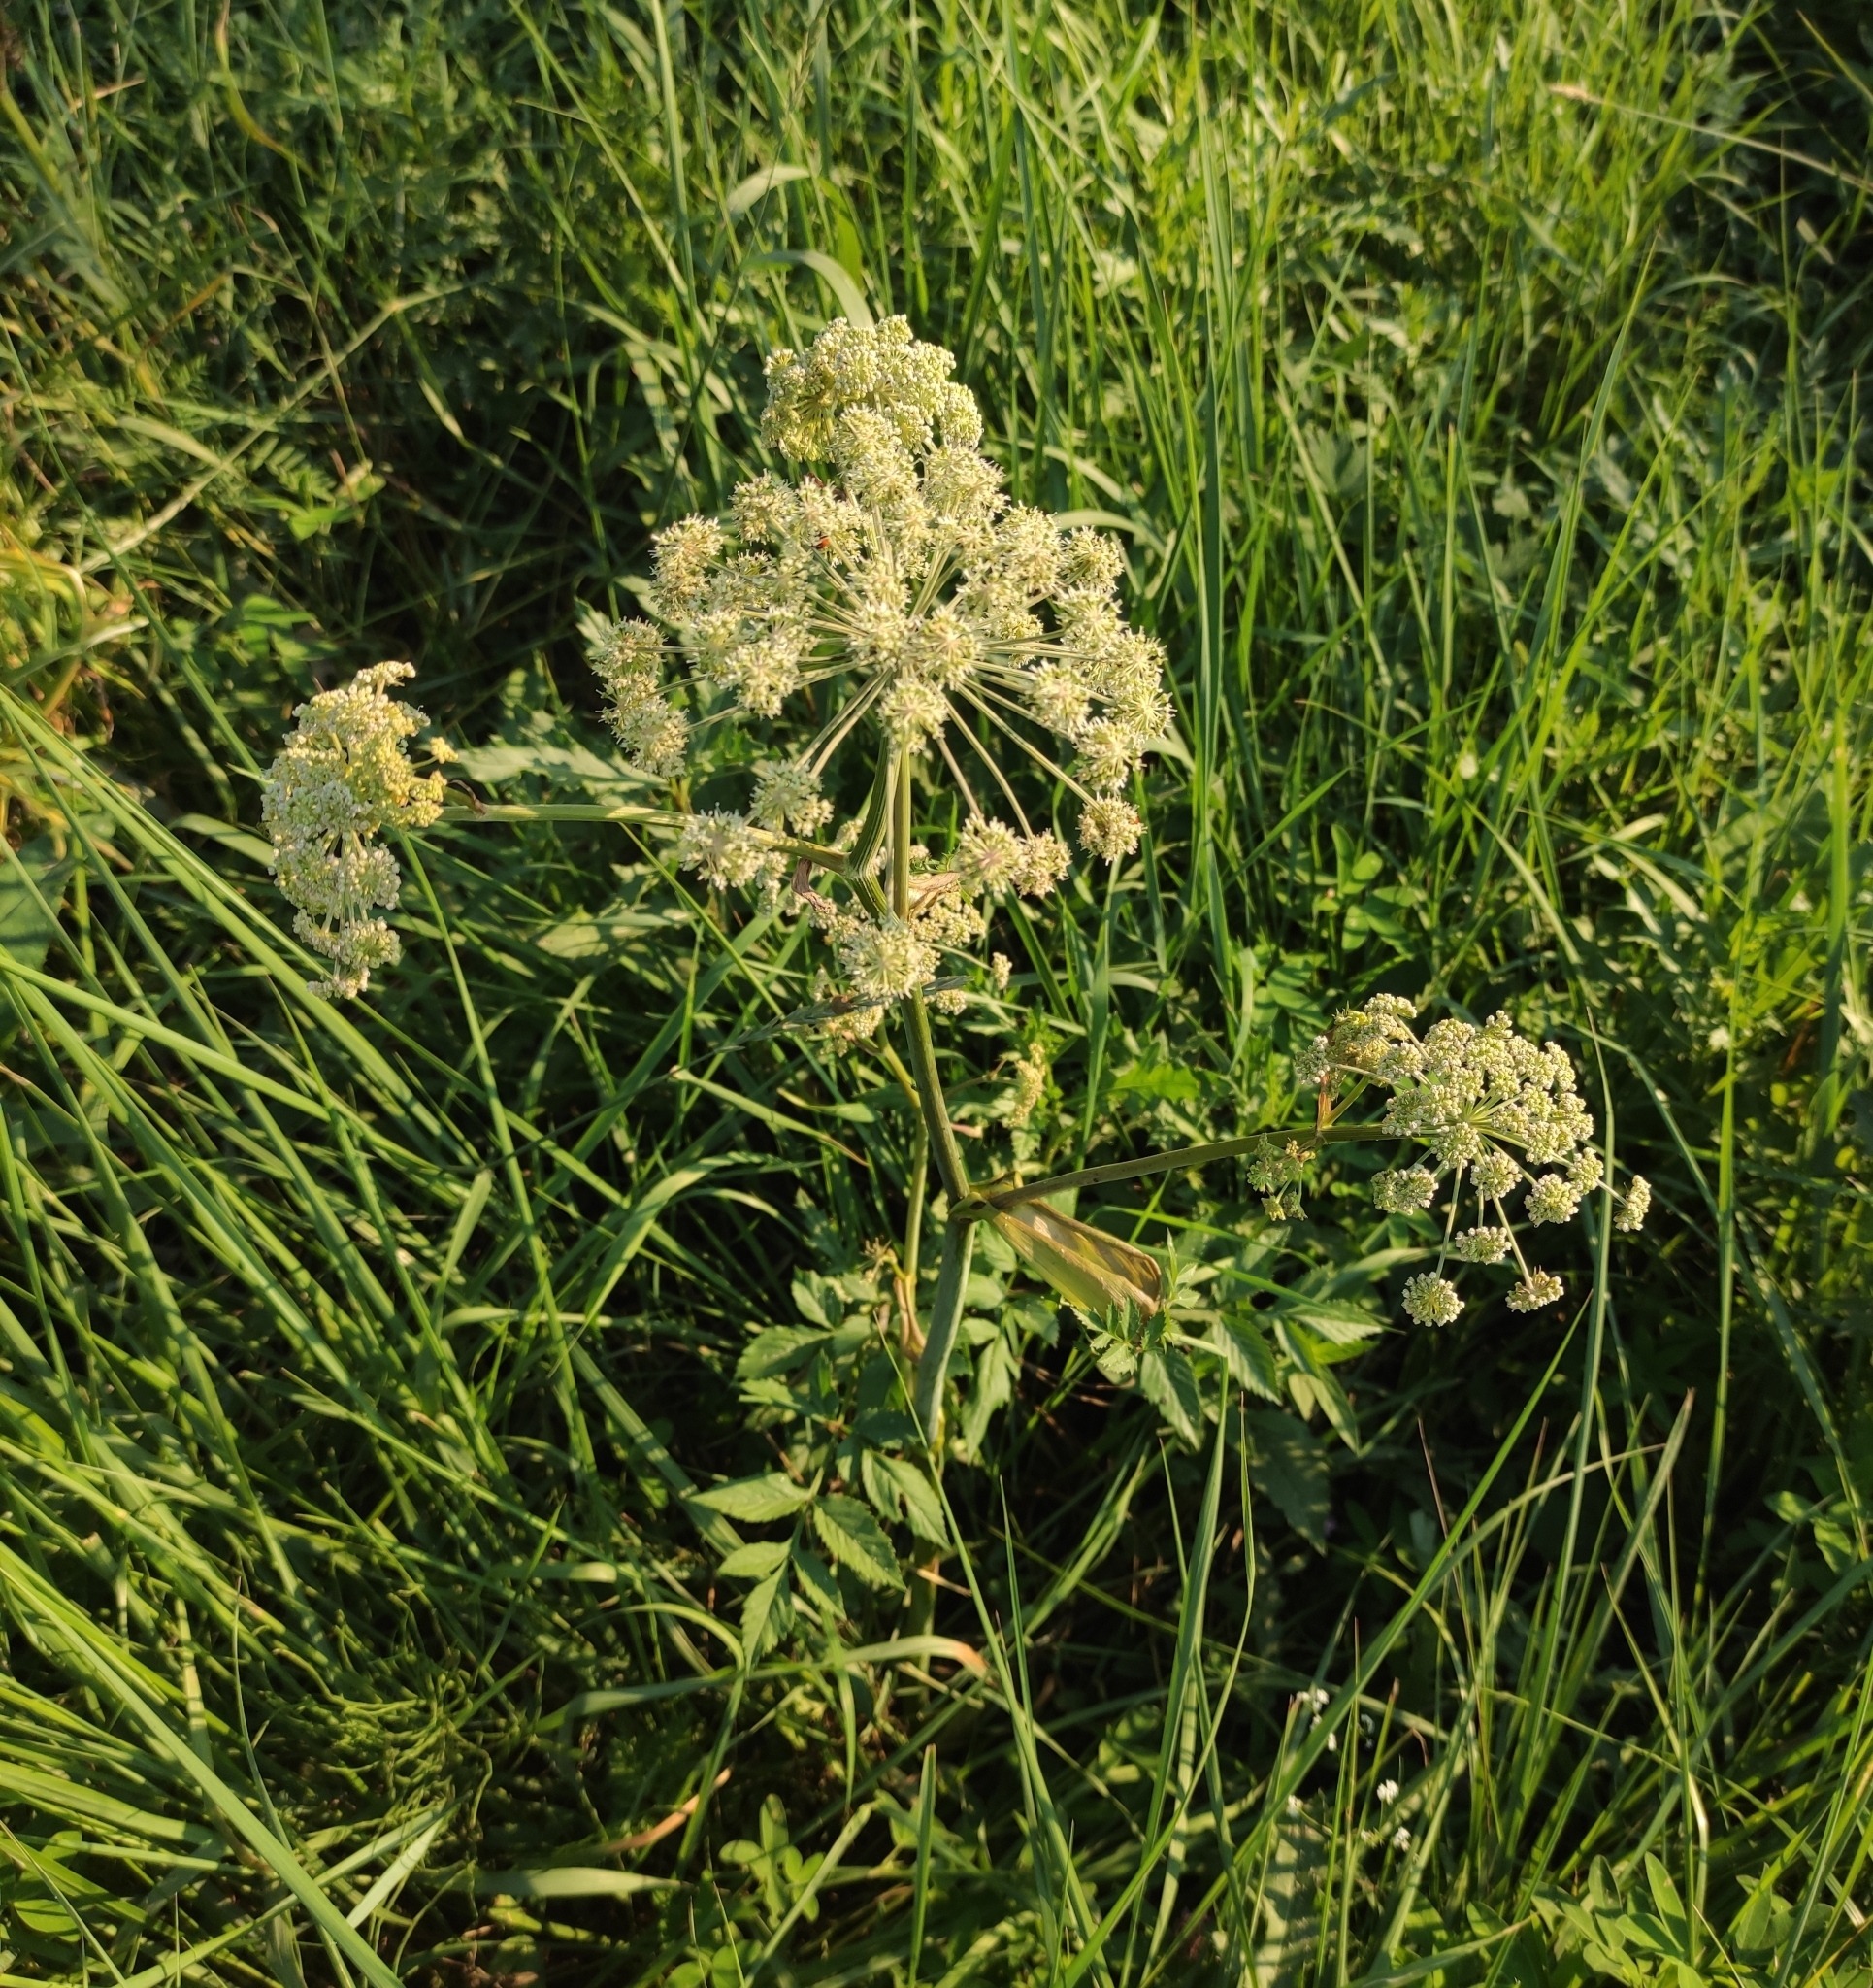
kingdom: Plantae
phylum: Tracheophyta
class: Magnoliopsida
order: Apiales
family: Apiaceae
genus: Angelica
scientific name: Angelica sylvestris
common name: Wild angelica
